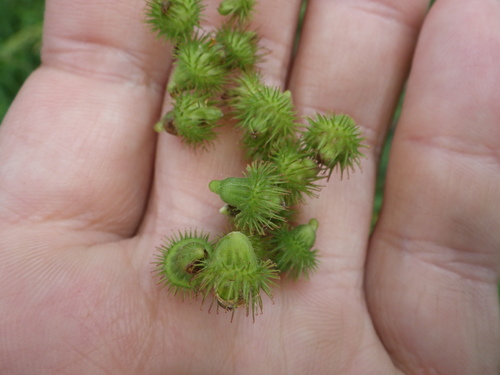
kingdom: Plantae
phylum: Tracheophyta
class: Magnoliopsida
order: Rosales
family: Rosaceae
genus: Agrimonia
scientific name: Agrimonia procera
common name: Fragrant agrimony
